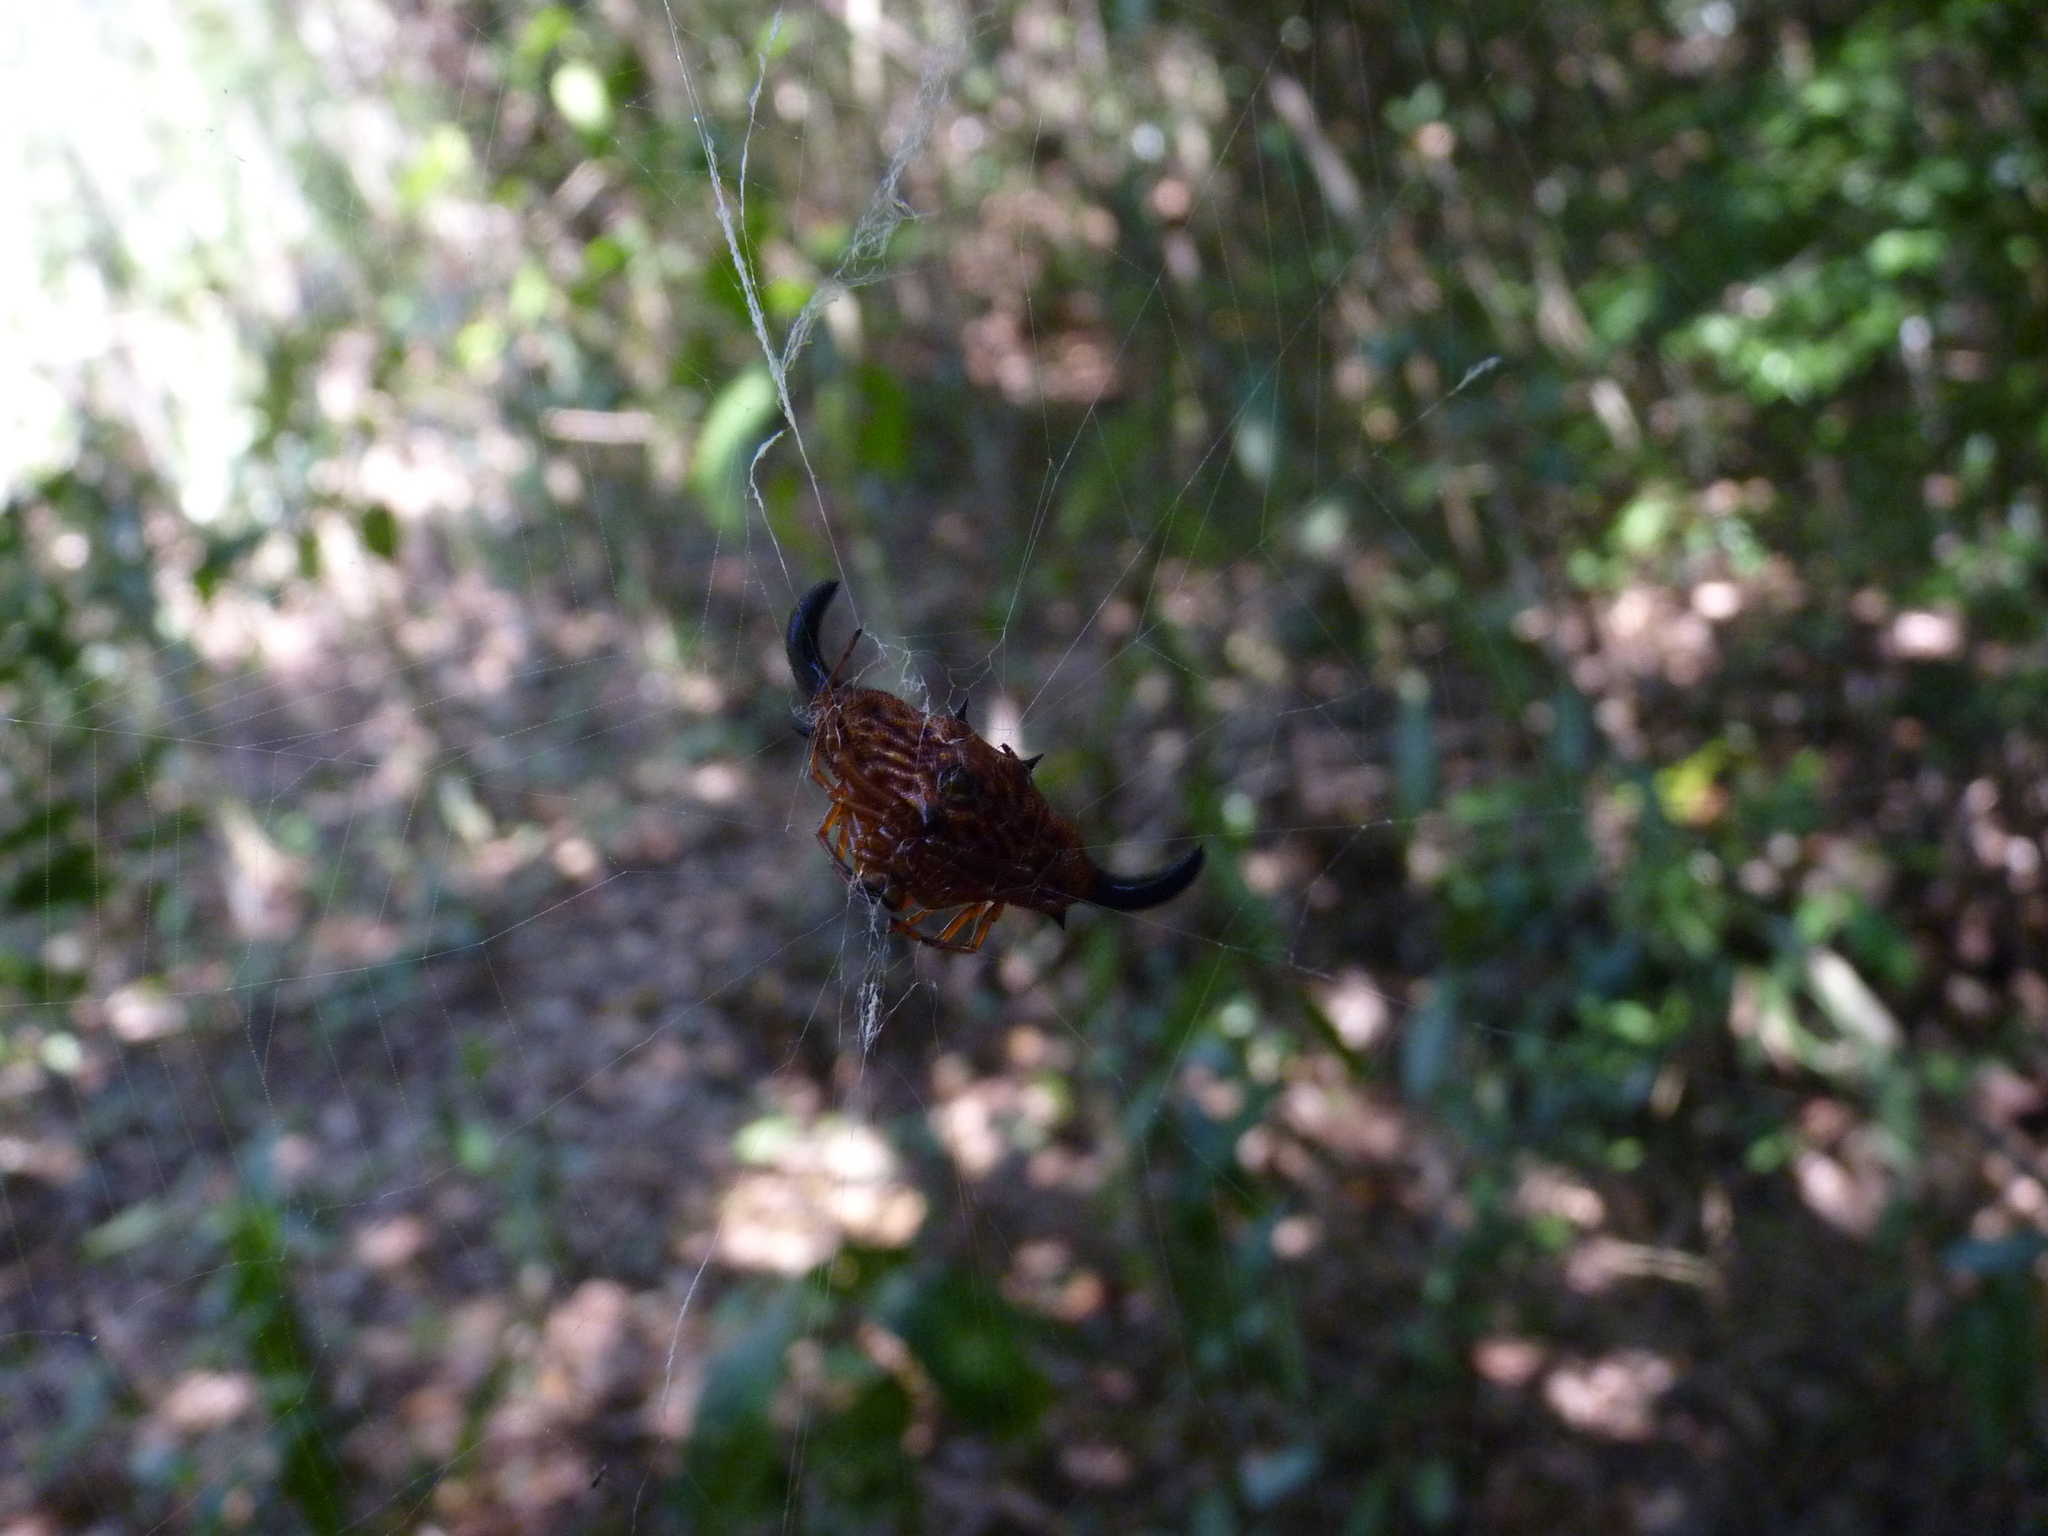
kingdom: Animalia
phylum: Arthropoda
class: Arachnida
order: Araneae
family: Araneidae
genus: Gasteracantha
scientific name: Gasteracantha thorelli
